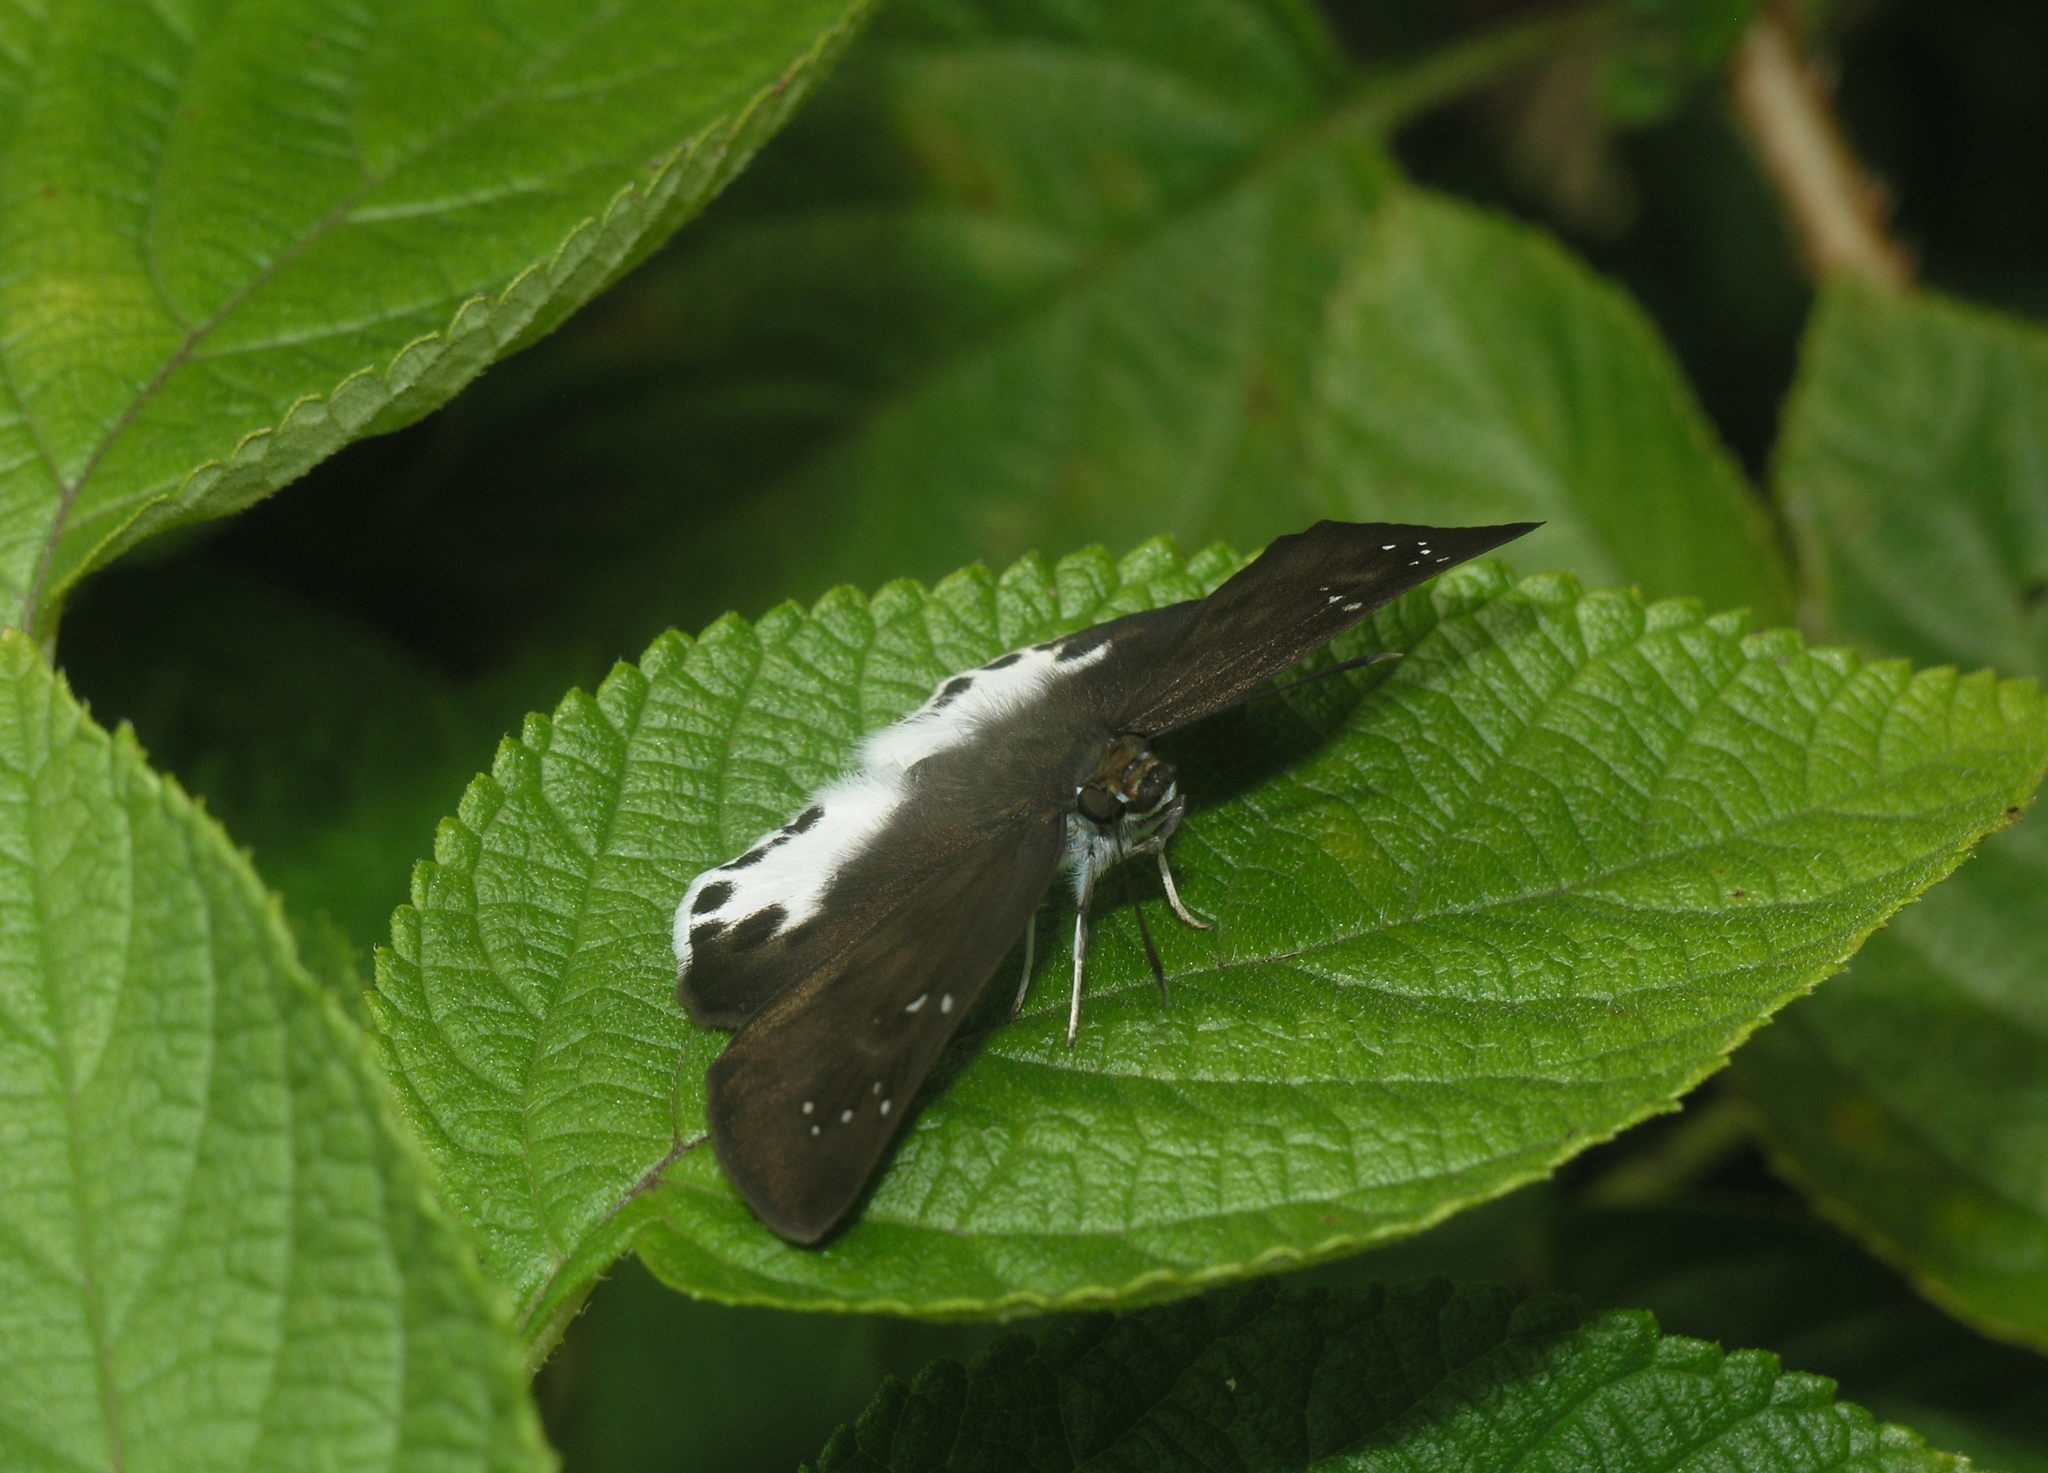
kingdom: Animalia
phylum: Arthropoda
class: Insecta
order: Lepidoptera
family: Hesperiidae
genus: Tagiades
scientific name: Tagiades litigiosa
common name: Water snow flat
